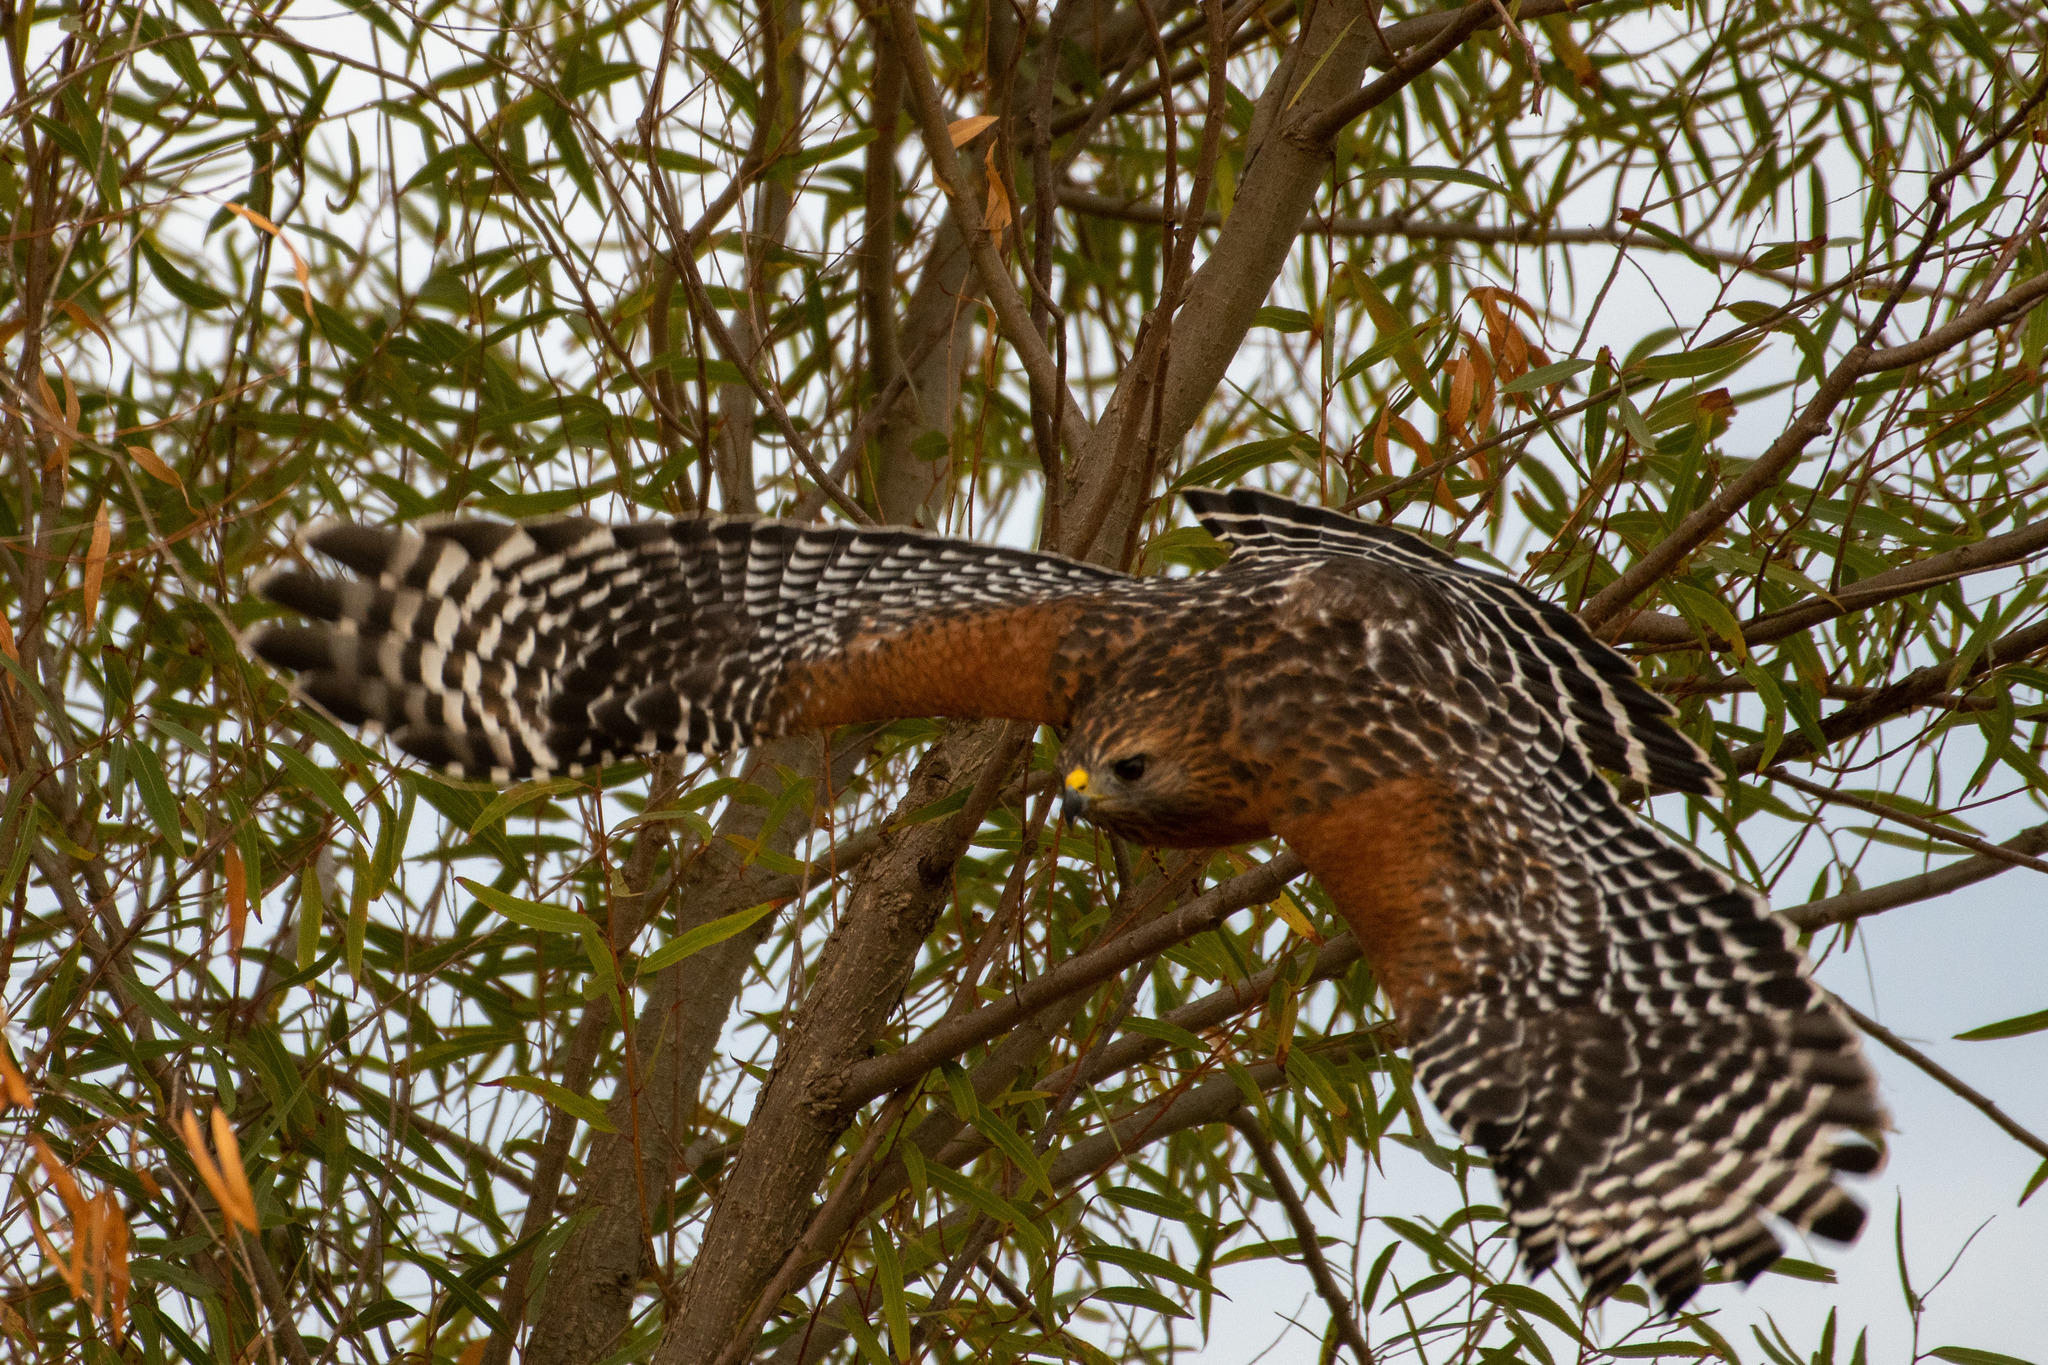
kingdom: Animalia
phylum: Chordata
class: Aves
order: Accipitriformes
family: Accipitridae
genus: Buteo
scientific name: Buteo lineatus
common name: Red-shouldered hawk
